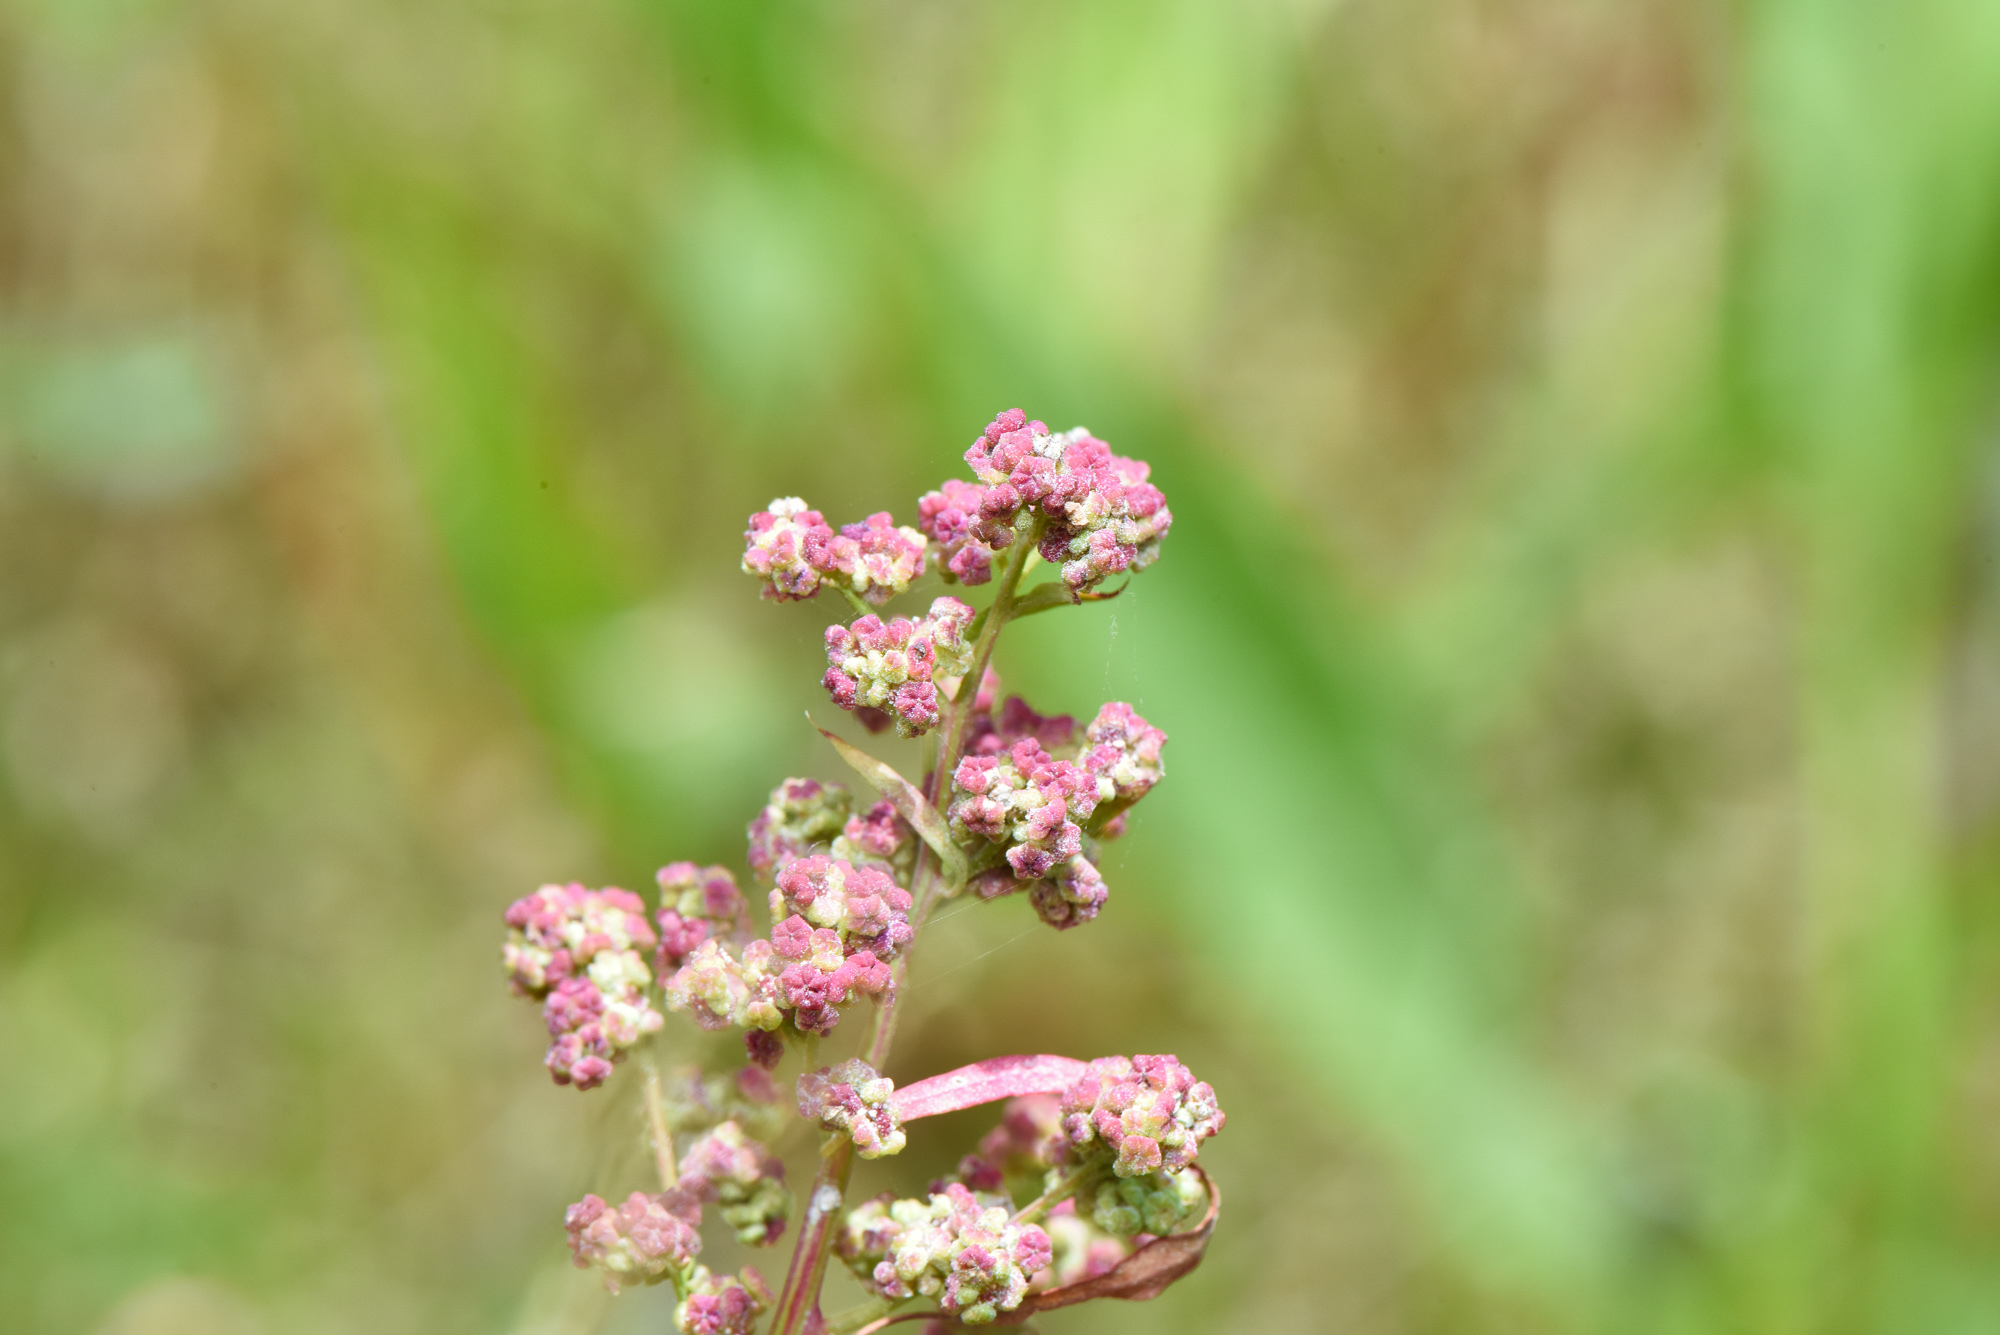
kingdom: Plantae
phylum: Tracheophyta
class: Magnoliopsida
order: Caryophyllales
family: Amaranthaceae
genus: Chenopodium
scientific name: Chenopodium ficifolium
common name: Fig-leaved goosefoot
